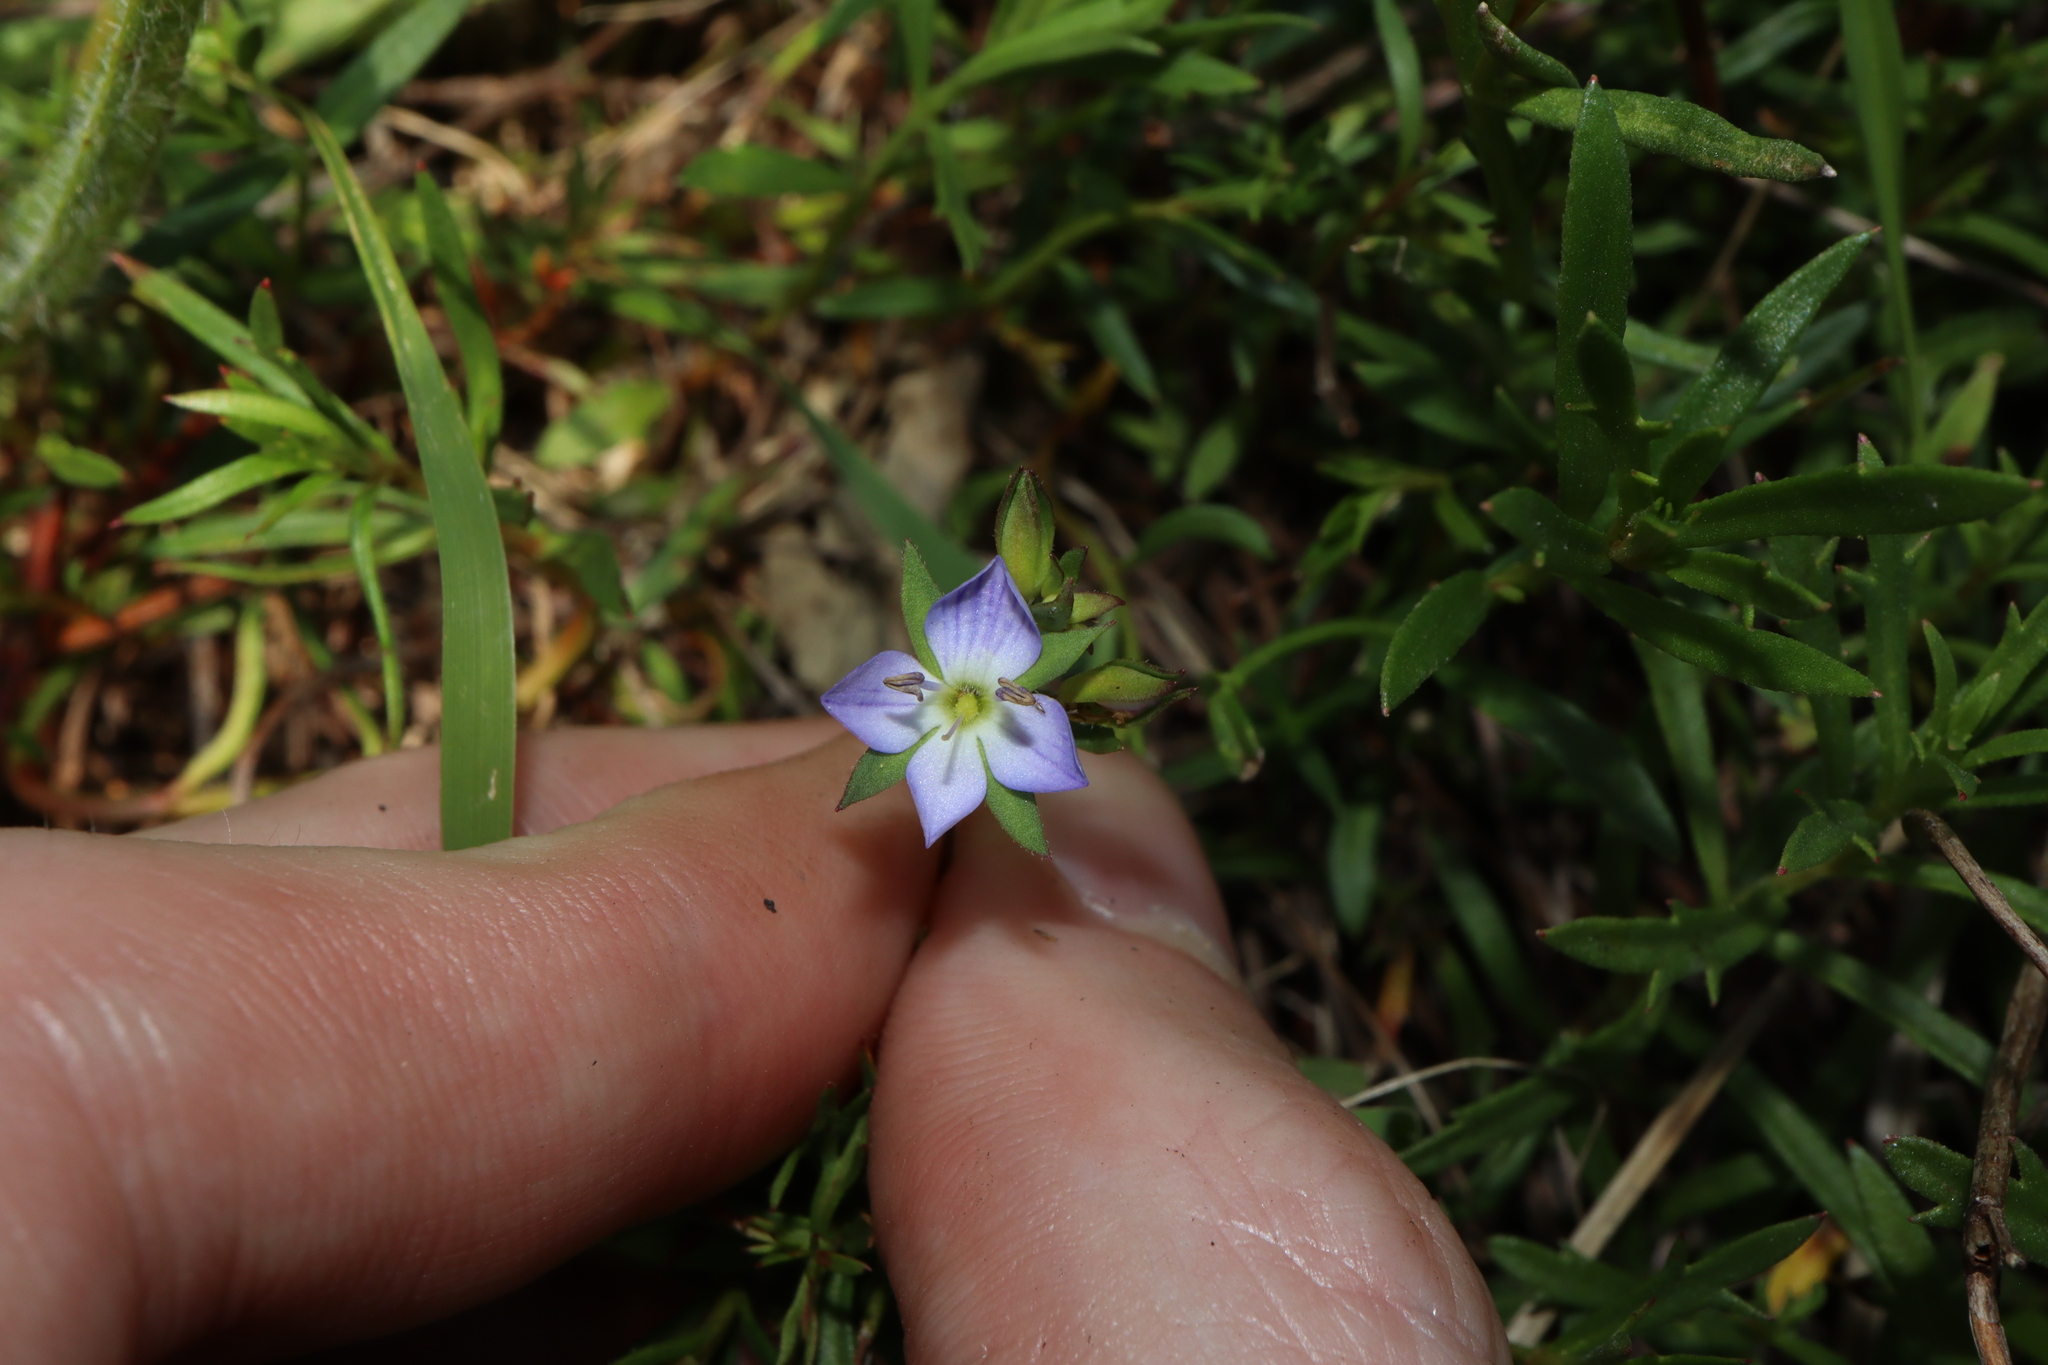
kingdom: Plantae
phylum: Tracheophyta
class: Magnoliopsida
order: Lamiales
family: Plantaginaceae
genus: Veronica
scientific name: Veronica gracilis
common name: Slender speedwell
